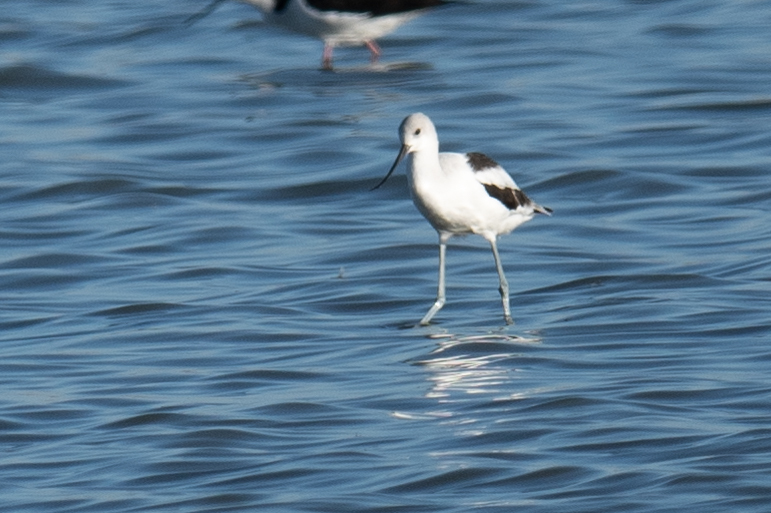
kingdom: Animalia
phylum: Chordata
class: Aves
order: Charadriiformes
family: Recurvirostridae
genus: Recurvirostra
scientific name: Recurvirostra americana
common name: American avocet
